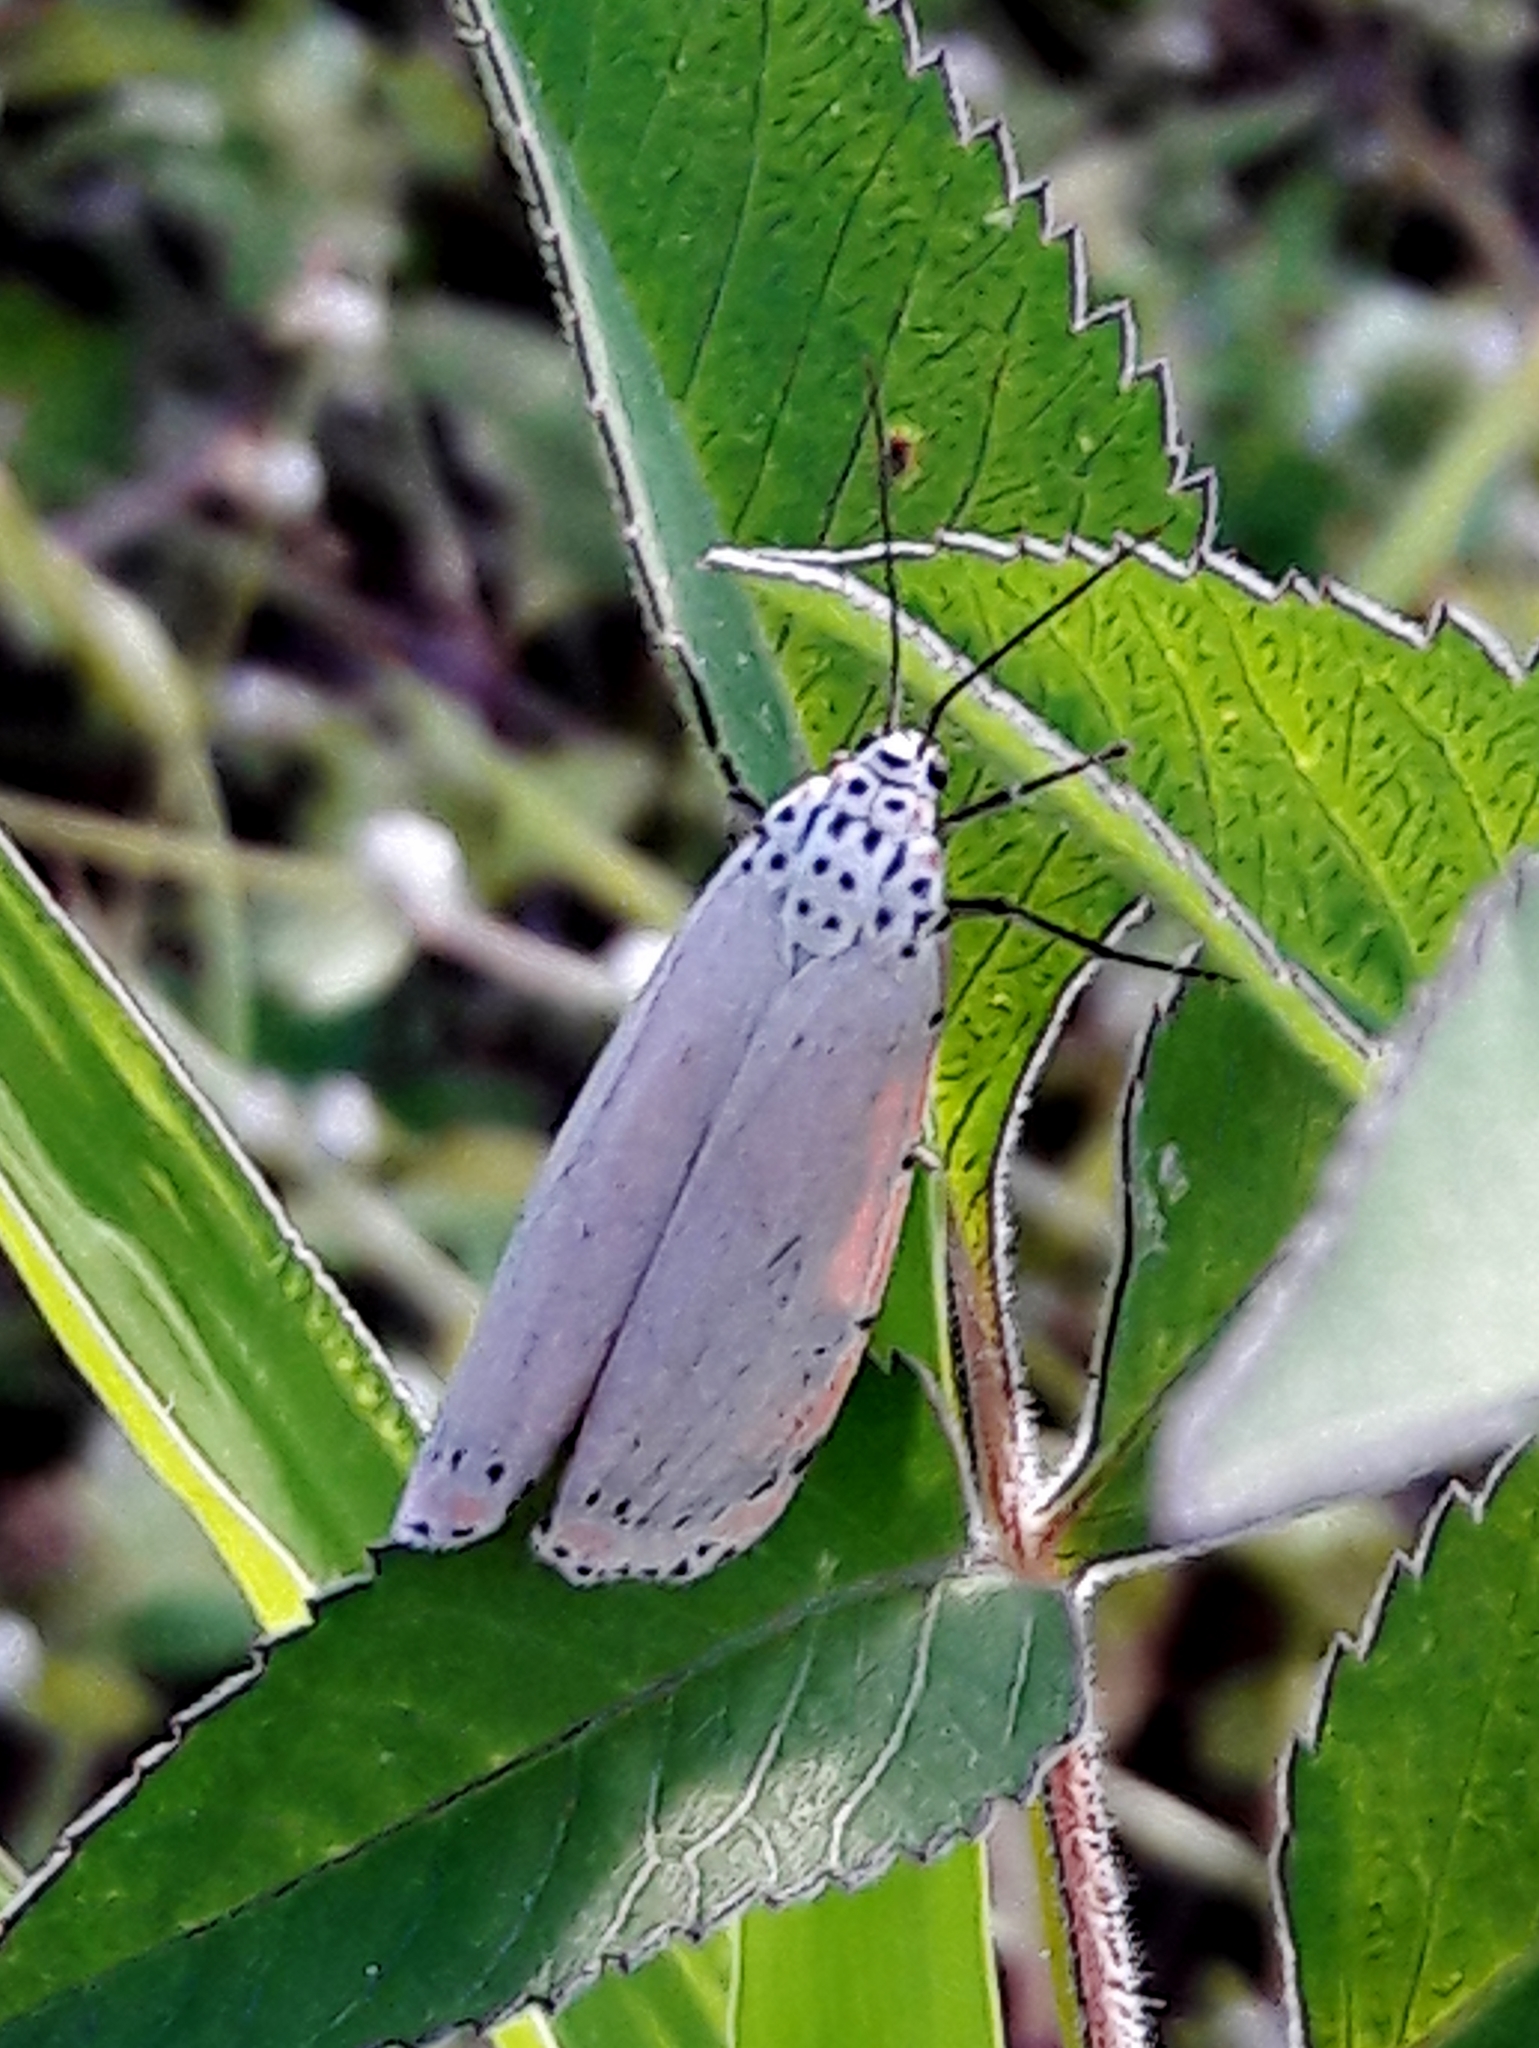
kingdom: Animalia
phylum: Arthropoda
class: Insecta
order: Lepidoptera
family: Erebidae
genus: Utetheisa
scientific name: Utetheisa ornatrix
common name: Beautiful utetheisa
